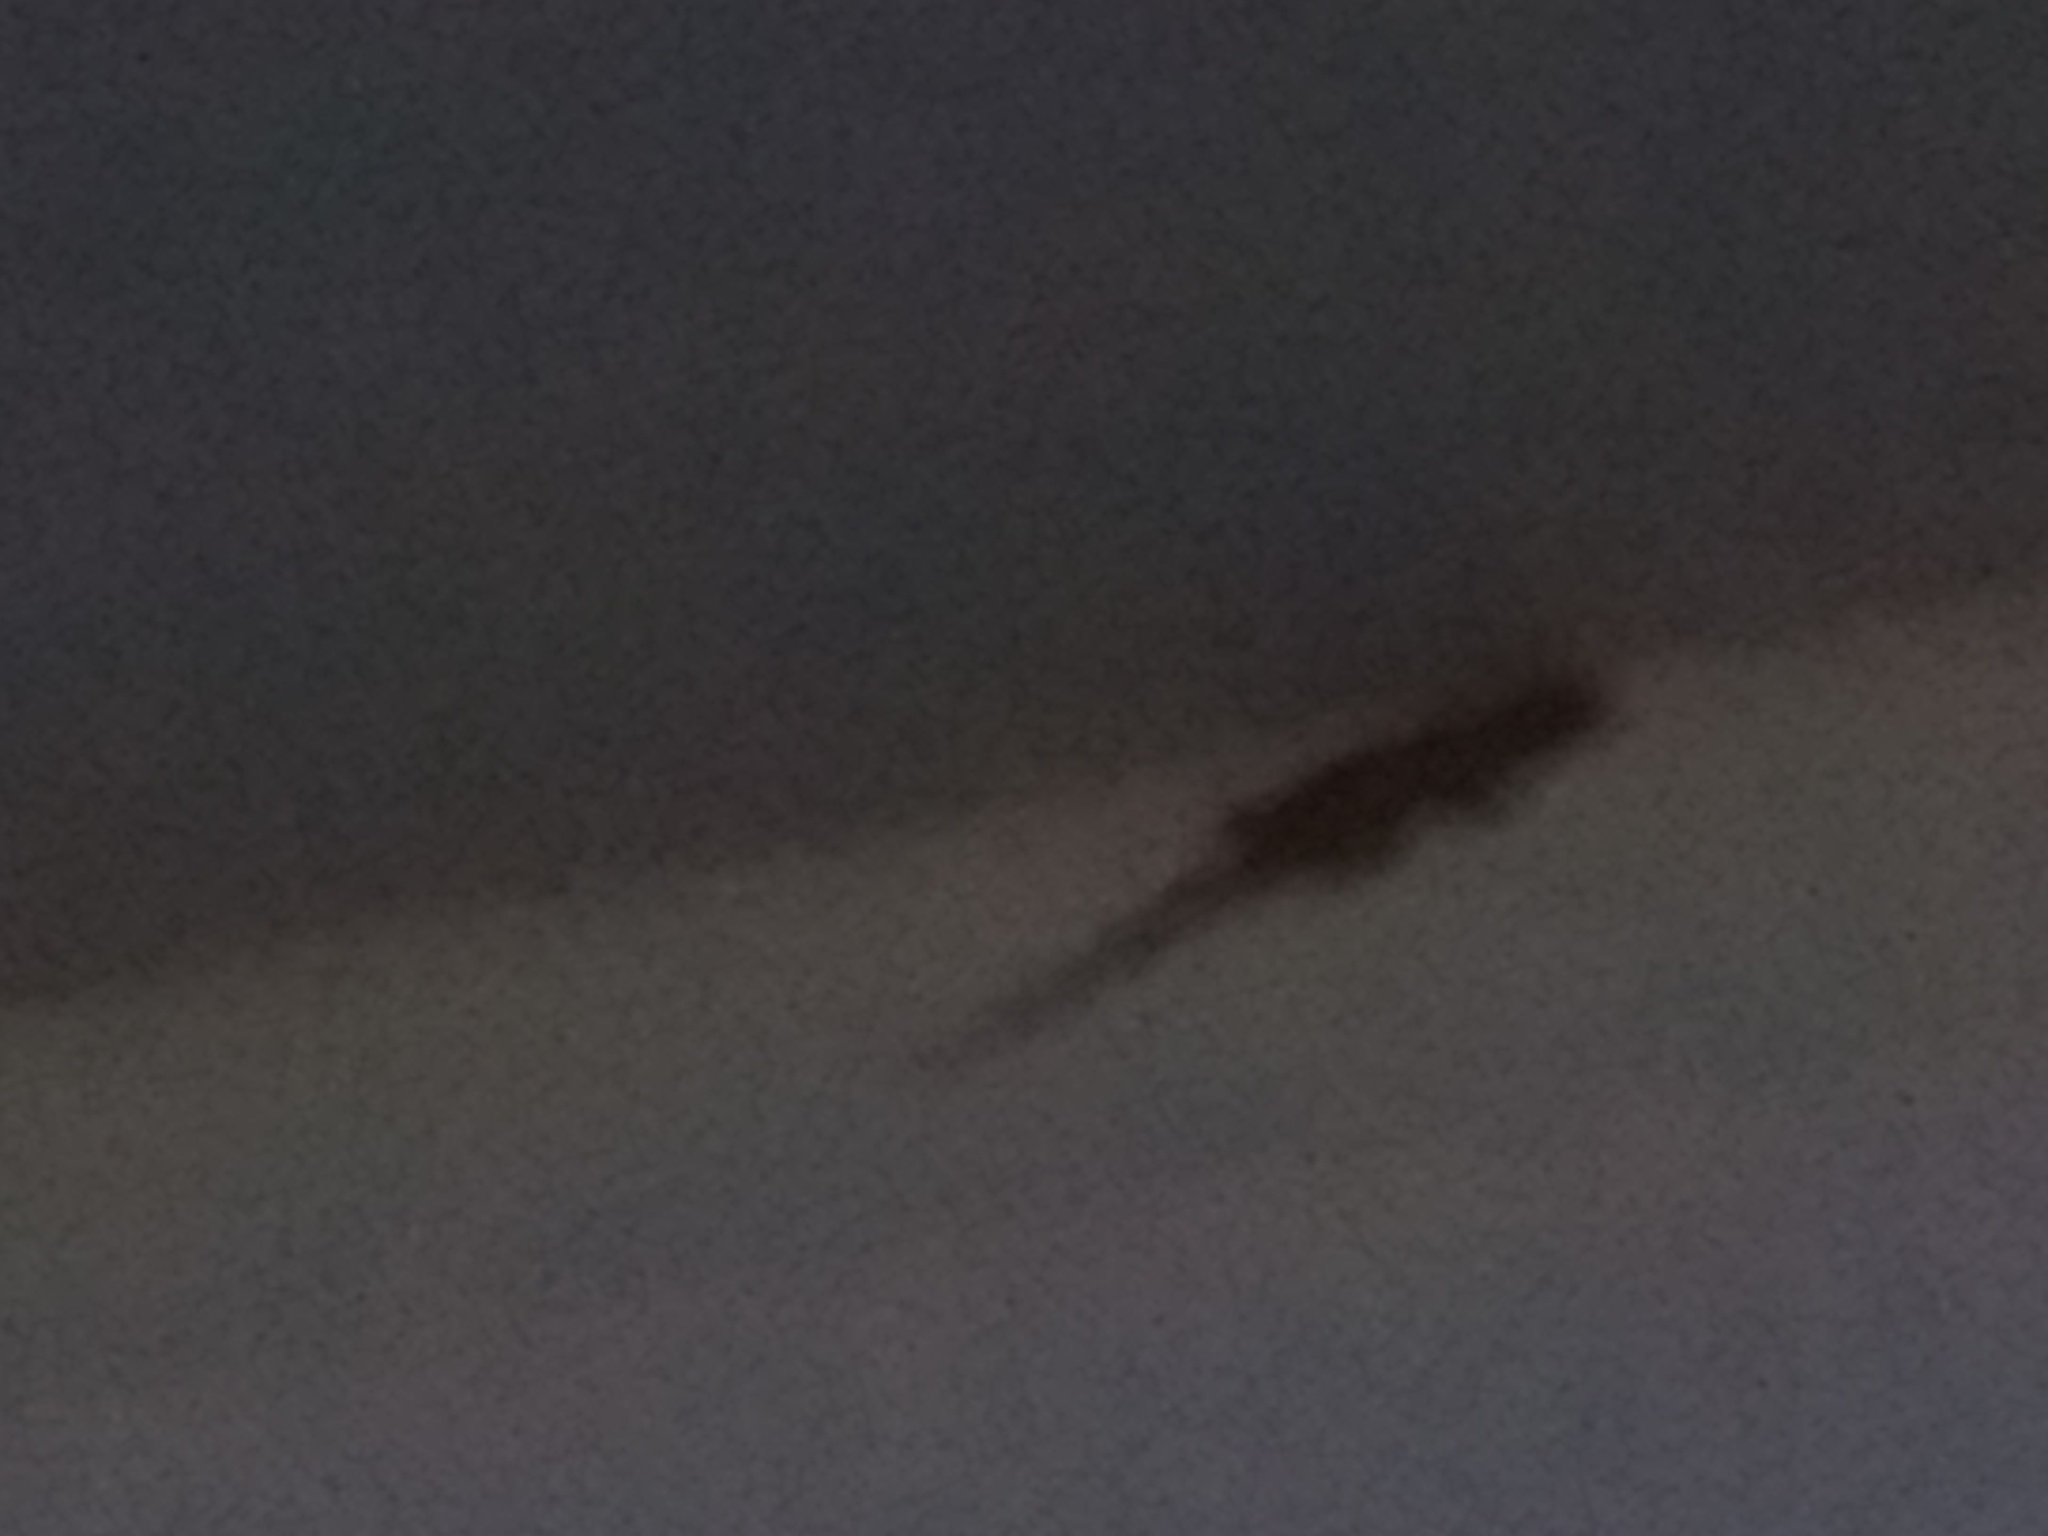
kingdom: Animalia
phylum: Chordata
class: Squamata
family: Phyllodactylidae
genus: Tarentola
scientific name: Tarentola mauritanica
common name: Moorish gecko
